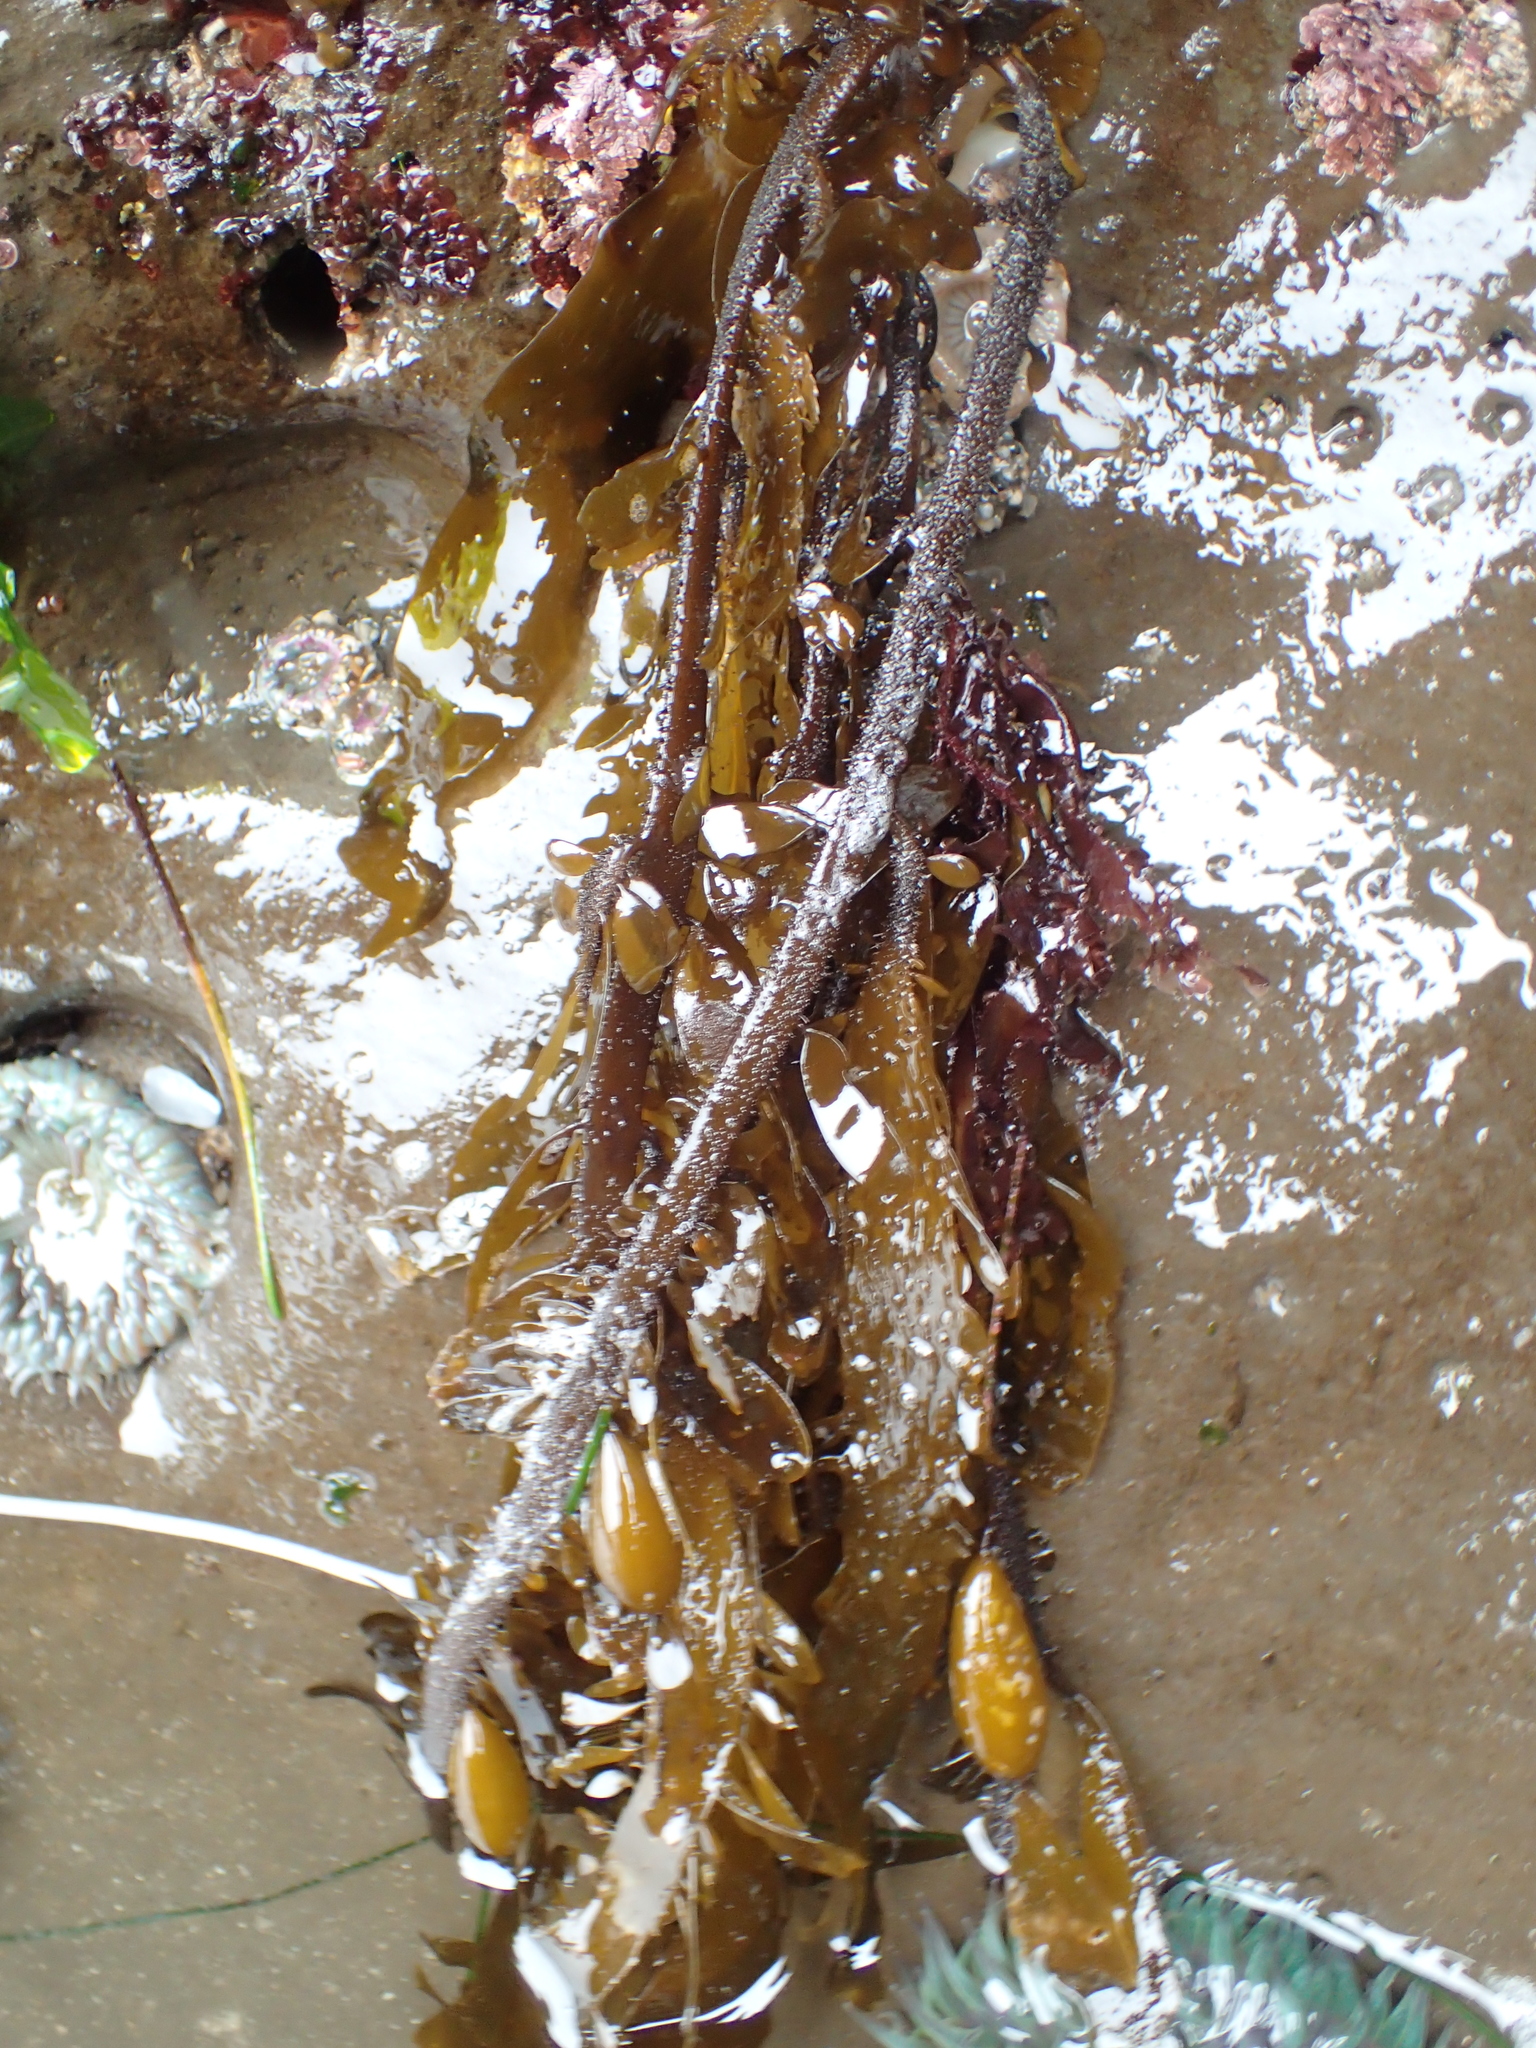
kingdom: Chromista
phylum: Ochrophyta
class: Phaeophyceae
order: Laminariales
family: Lessoniaceae
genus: Egregia
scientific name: Egregia menziesii
